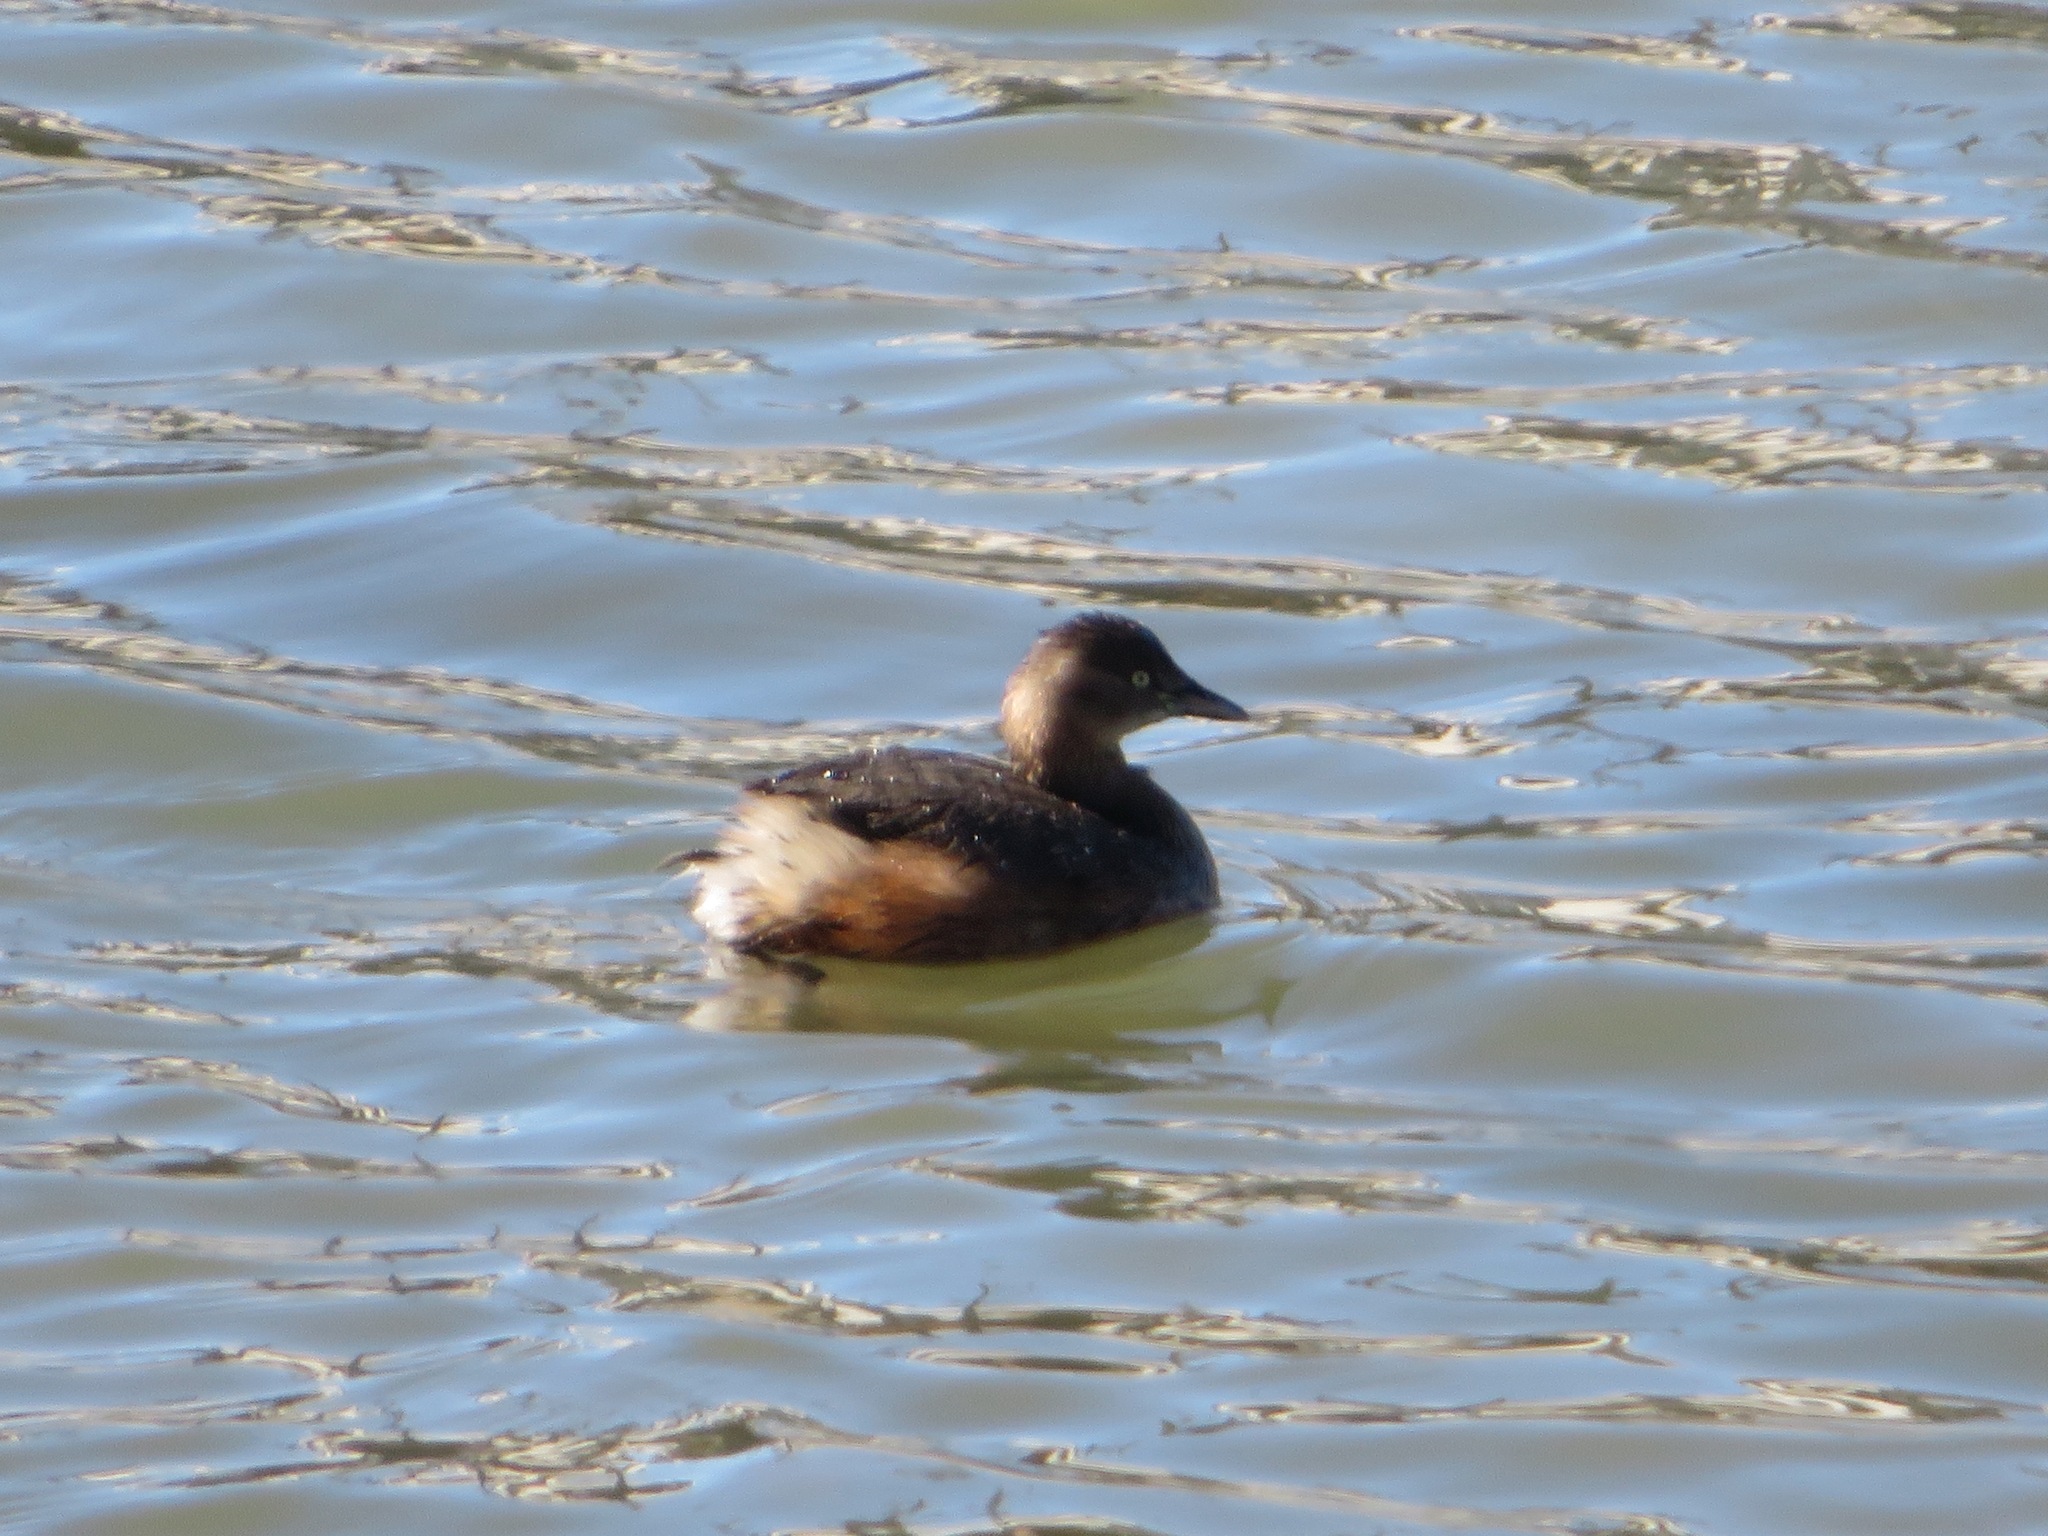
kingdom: Animalia
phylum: Chordata
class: Aves
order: Podicipediformes
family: Podicipedidae
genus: Tachybaptus
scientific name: Tachybaptus ruficollis
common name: Little grebe
